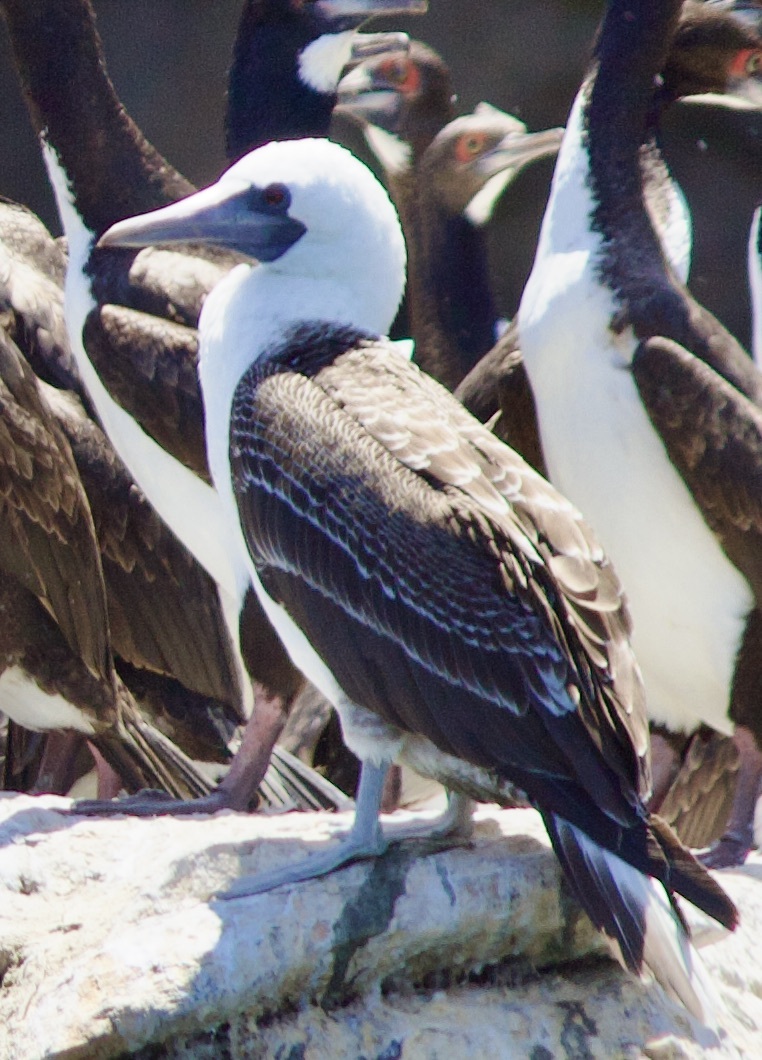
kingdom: Animalia
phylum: Chordata
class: Aves
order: Suliformes
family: Sulidae
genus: Sula
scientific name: Sula variegata
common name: Peruvian booby
